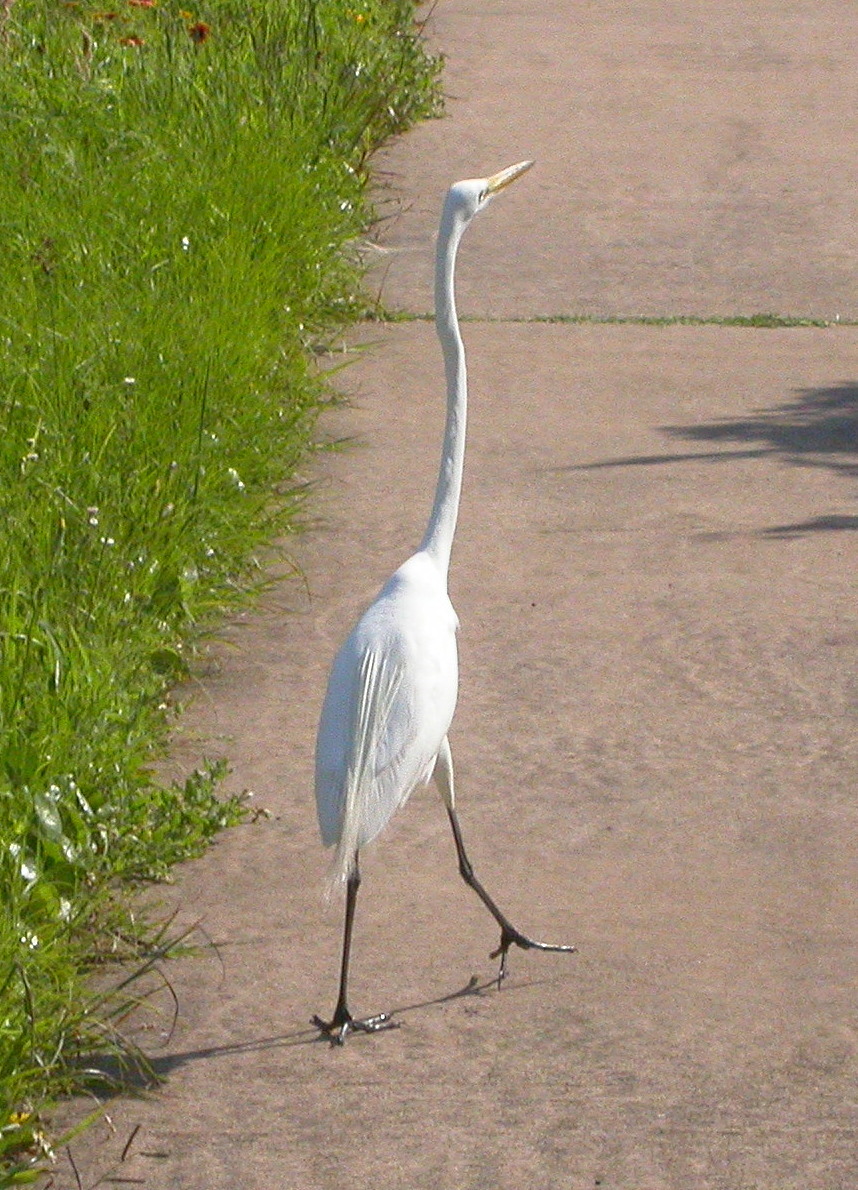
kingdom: Animalia
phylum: Chordata
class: Aves
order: Pelecaniformes
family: Ardeidae
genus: Ardea
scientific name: Ardea alba
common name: Great egret
